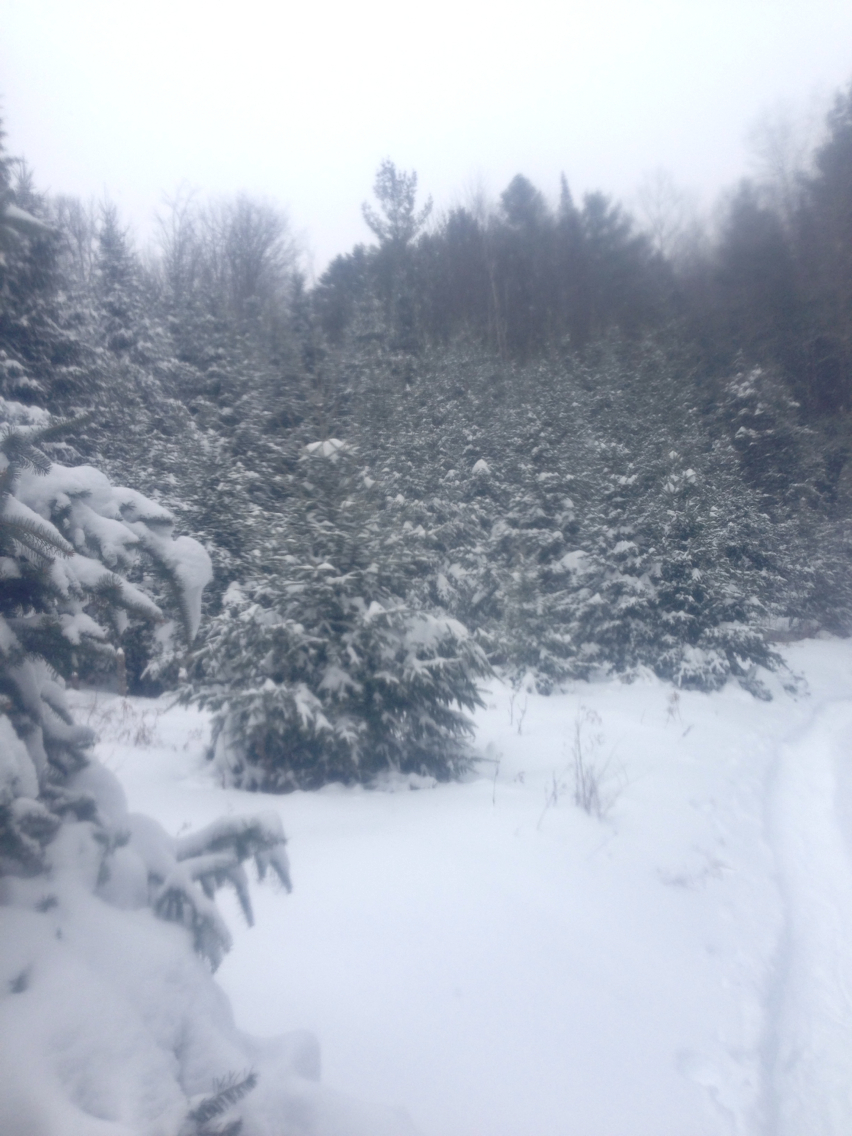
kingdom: Plantae
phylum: Tracheophyta
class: Pinopsida
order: Pinales
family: Pinaceae
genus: Abies
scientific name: Abies balsamea
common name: Balsam fir
